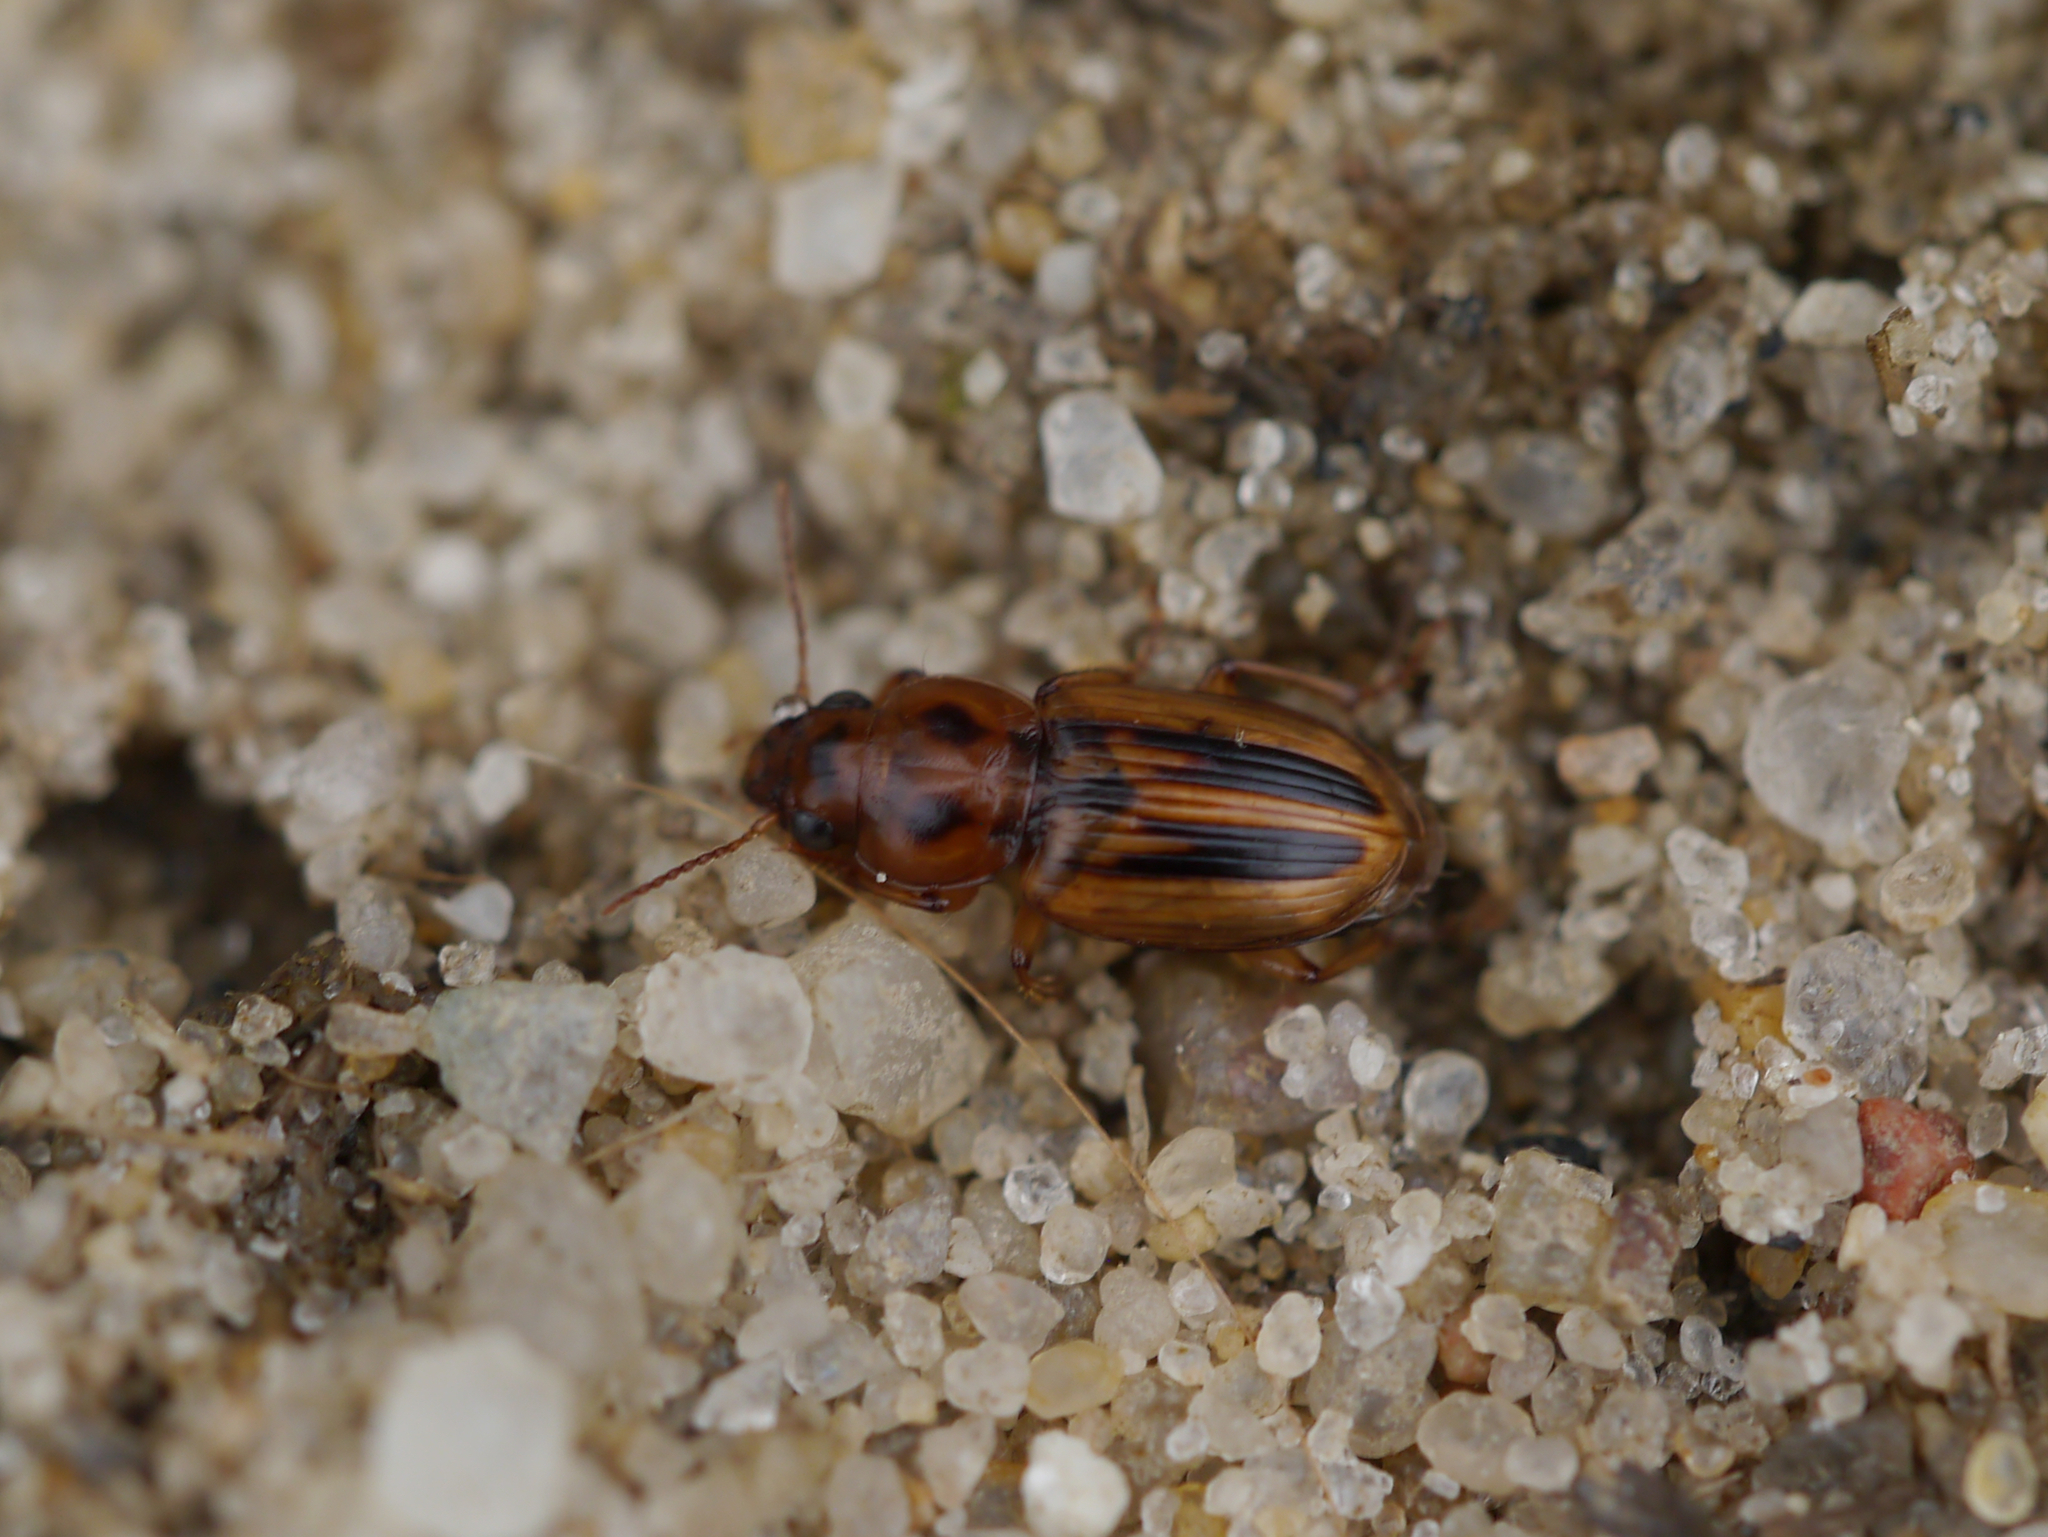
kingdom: Animalia
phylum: Arthropoda
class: Insecta
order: Coleoptera
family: Carabidae
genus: Stenolophus
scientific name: Stenolophus lineola
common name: Lined stenolophus
